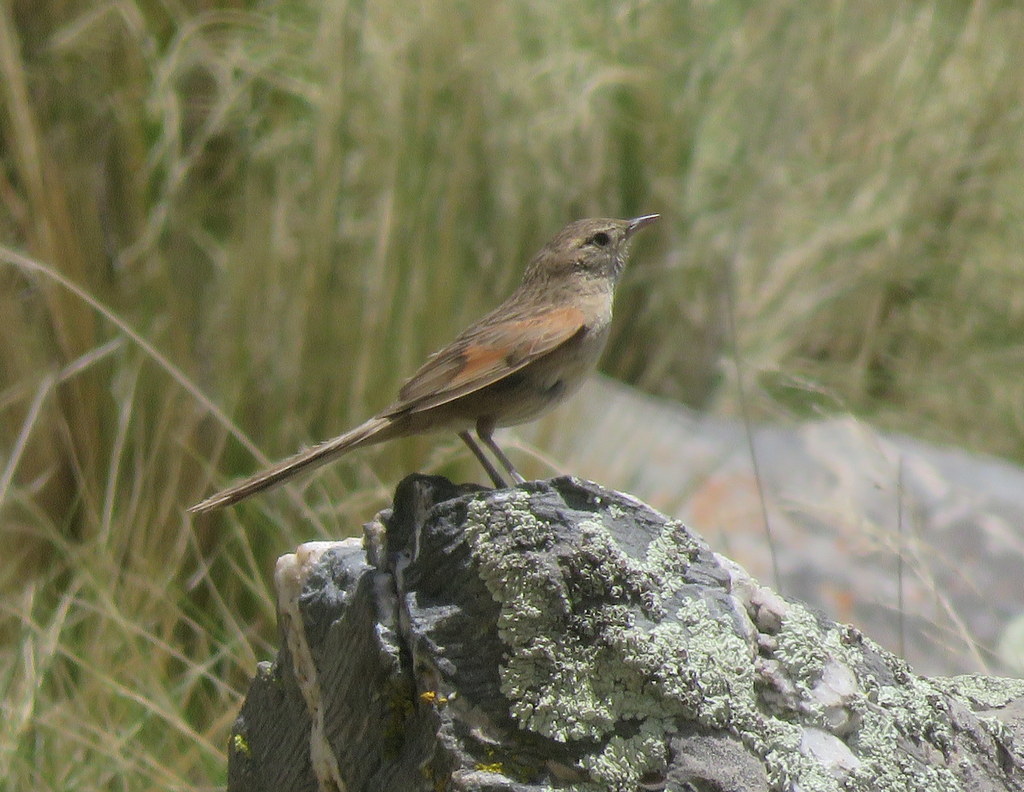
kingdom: Animalia
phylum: Chordata
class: Aves
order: Passeriformes
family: Furnariidae
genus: Asthenes
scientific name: Asthenes wyatti
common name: Streak-backed canastero
